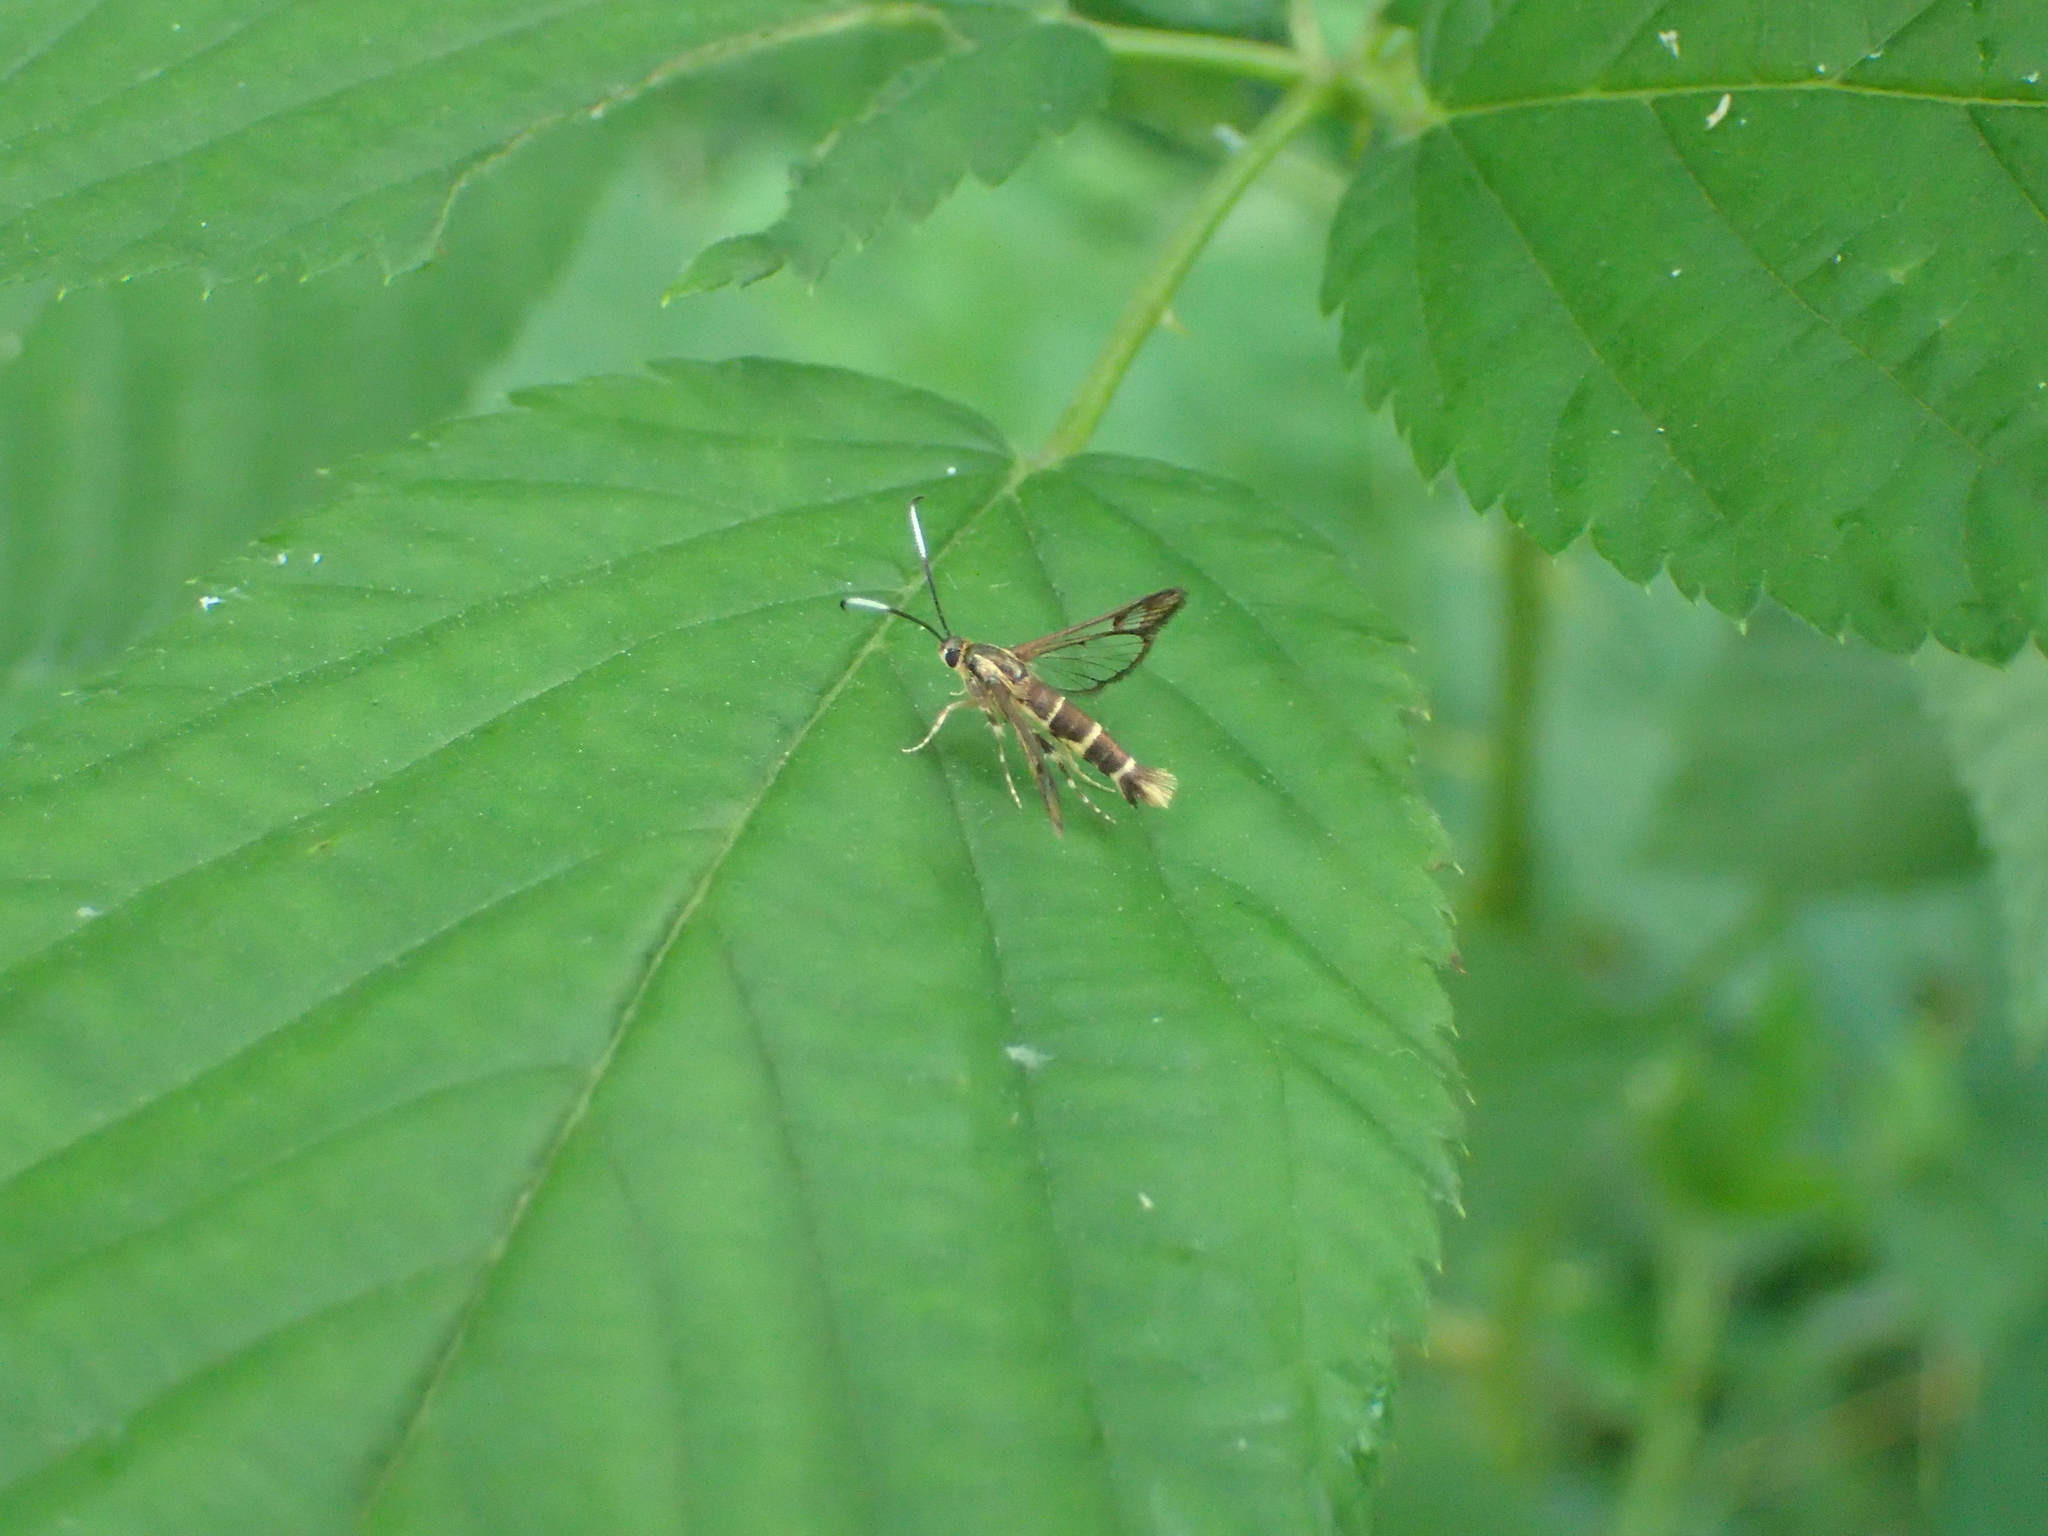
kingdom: Animalia
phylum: Arthropoda
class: Insecta
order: Lepidoptera
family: Sesiidae
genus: Carmenta
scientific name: Carmenta bassiformis
